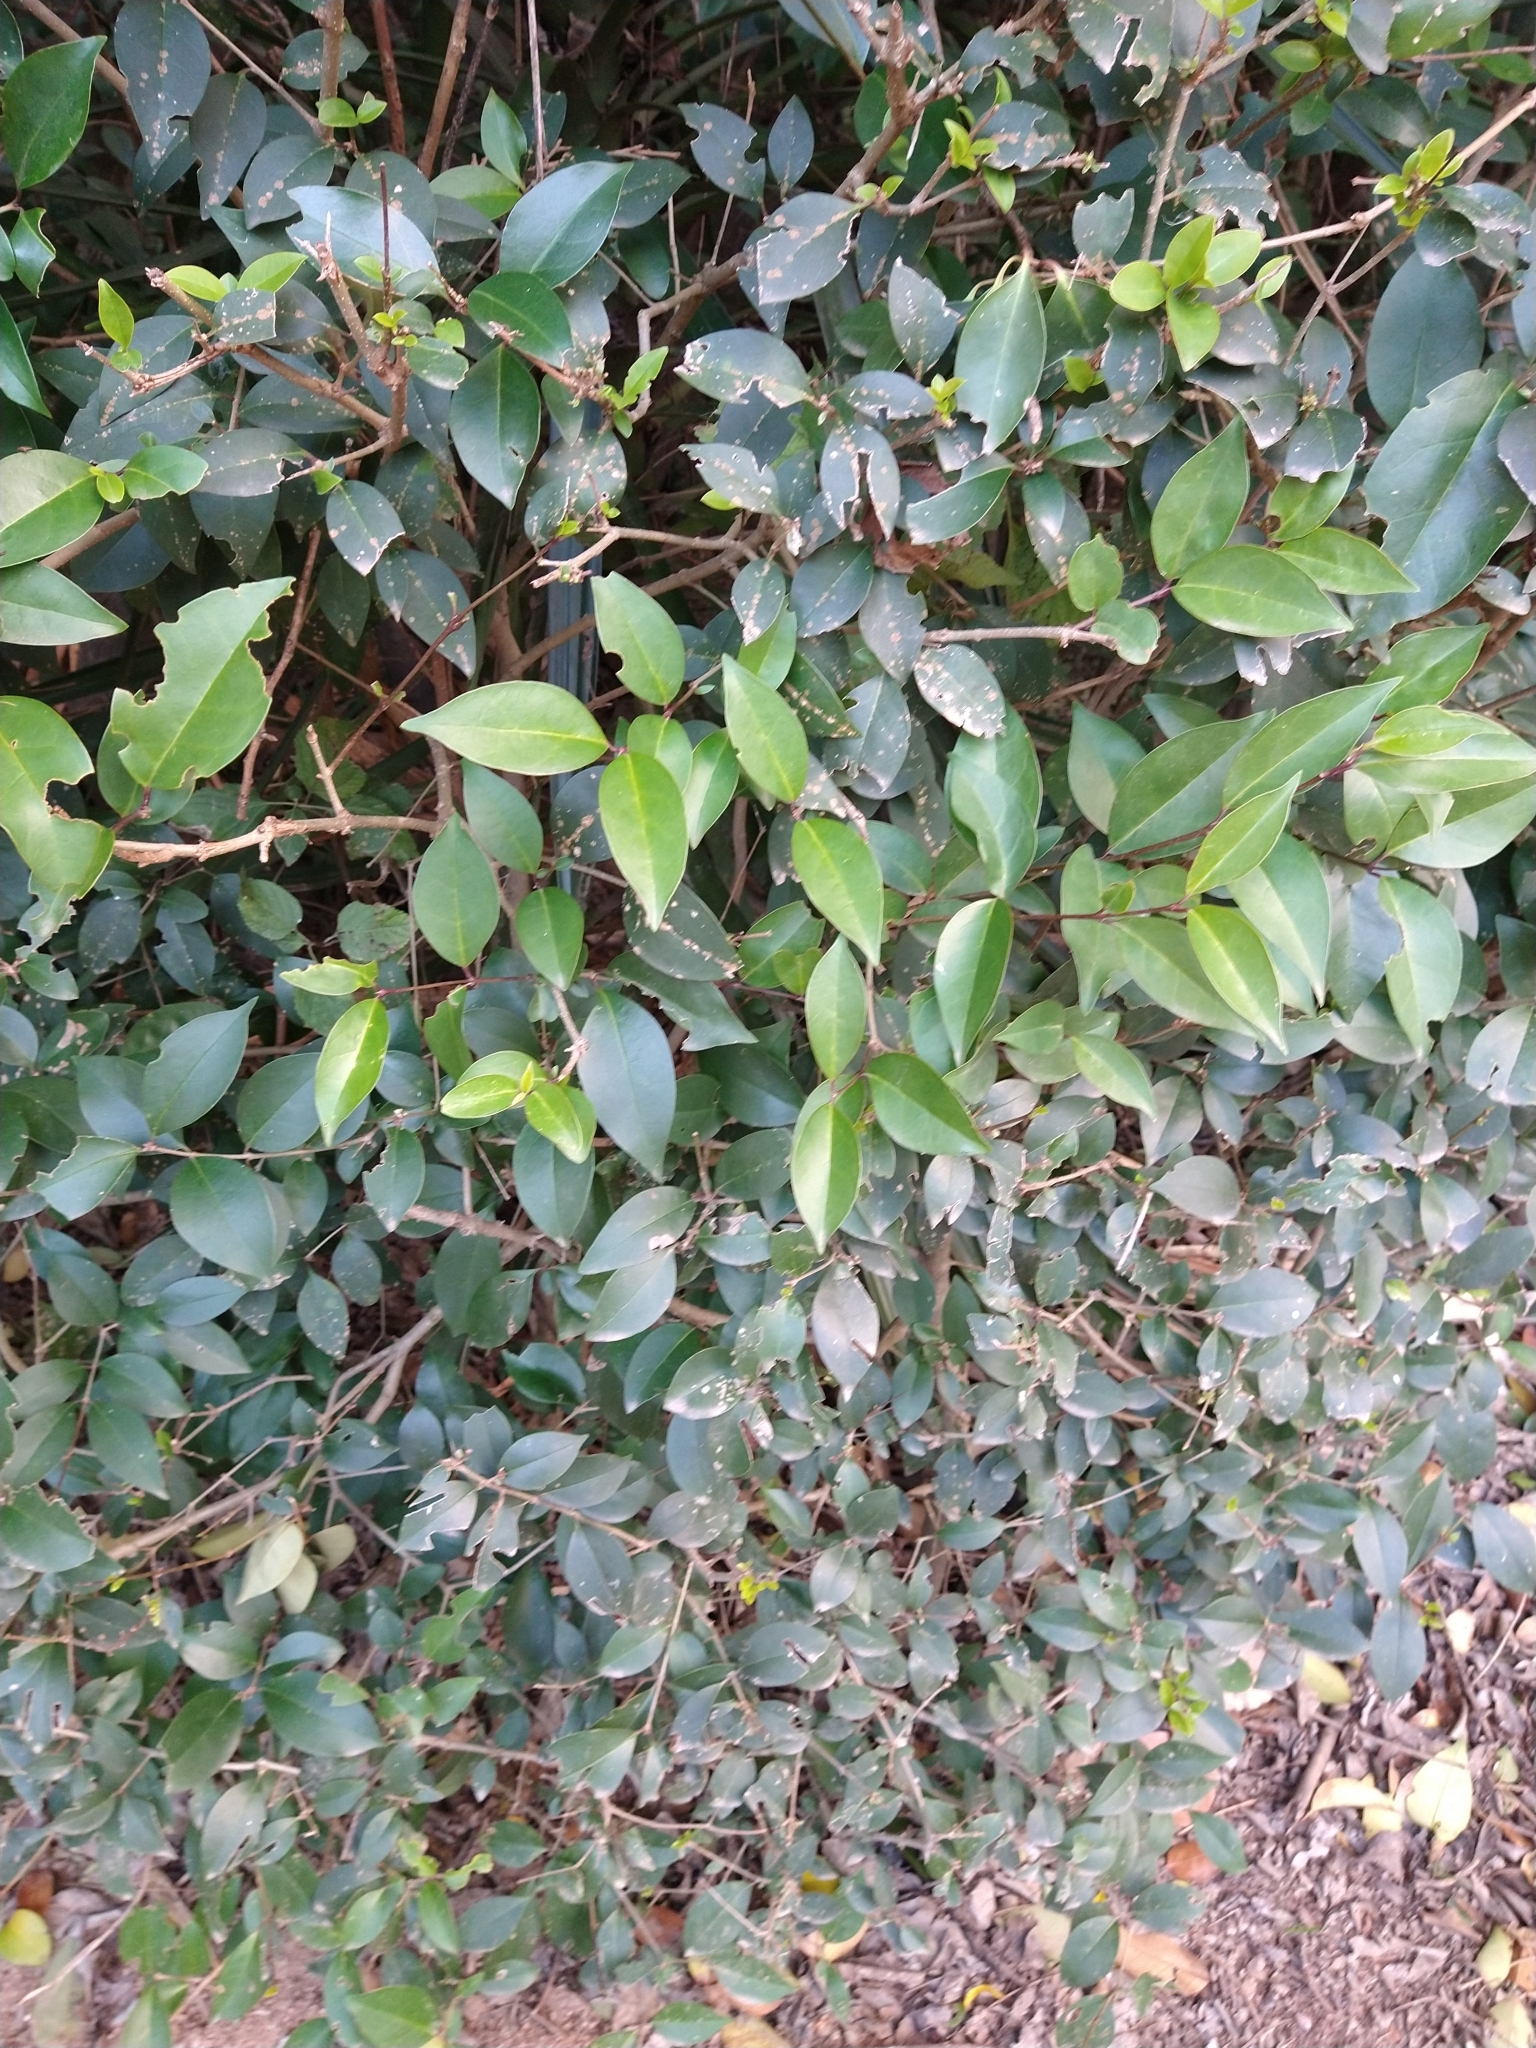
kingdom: Plantae
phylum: Tracheophyta
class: Magnoliopsida
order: Lamiales
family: Oleaceae
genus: Ligustrum
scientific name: Ligustrum lucidum
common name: Glossy privet
